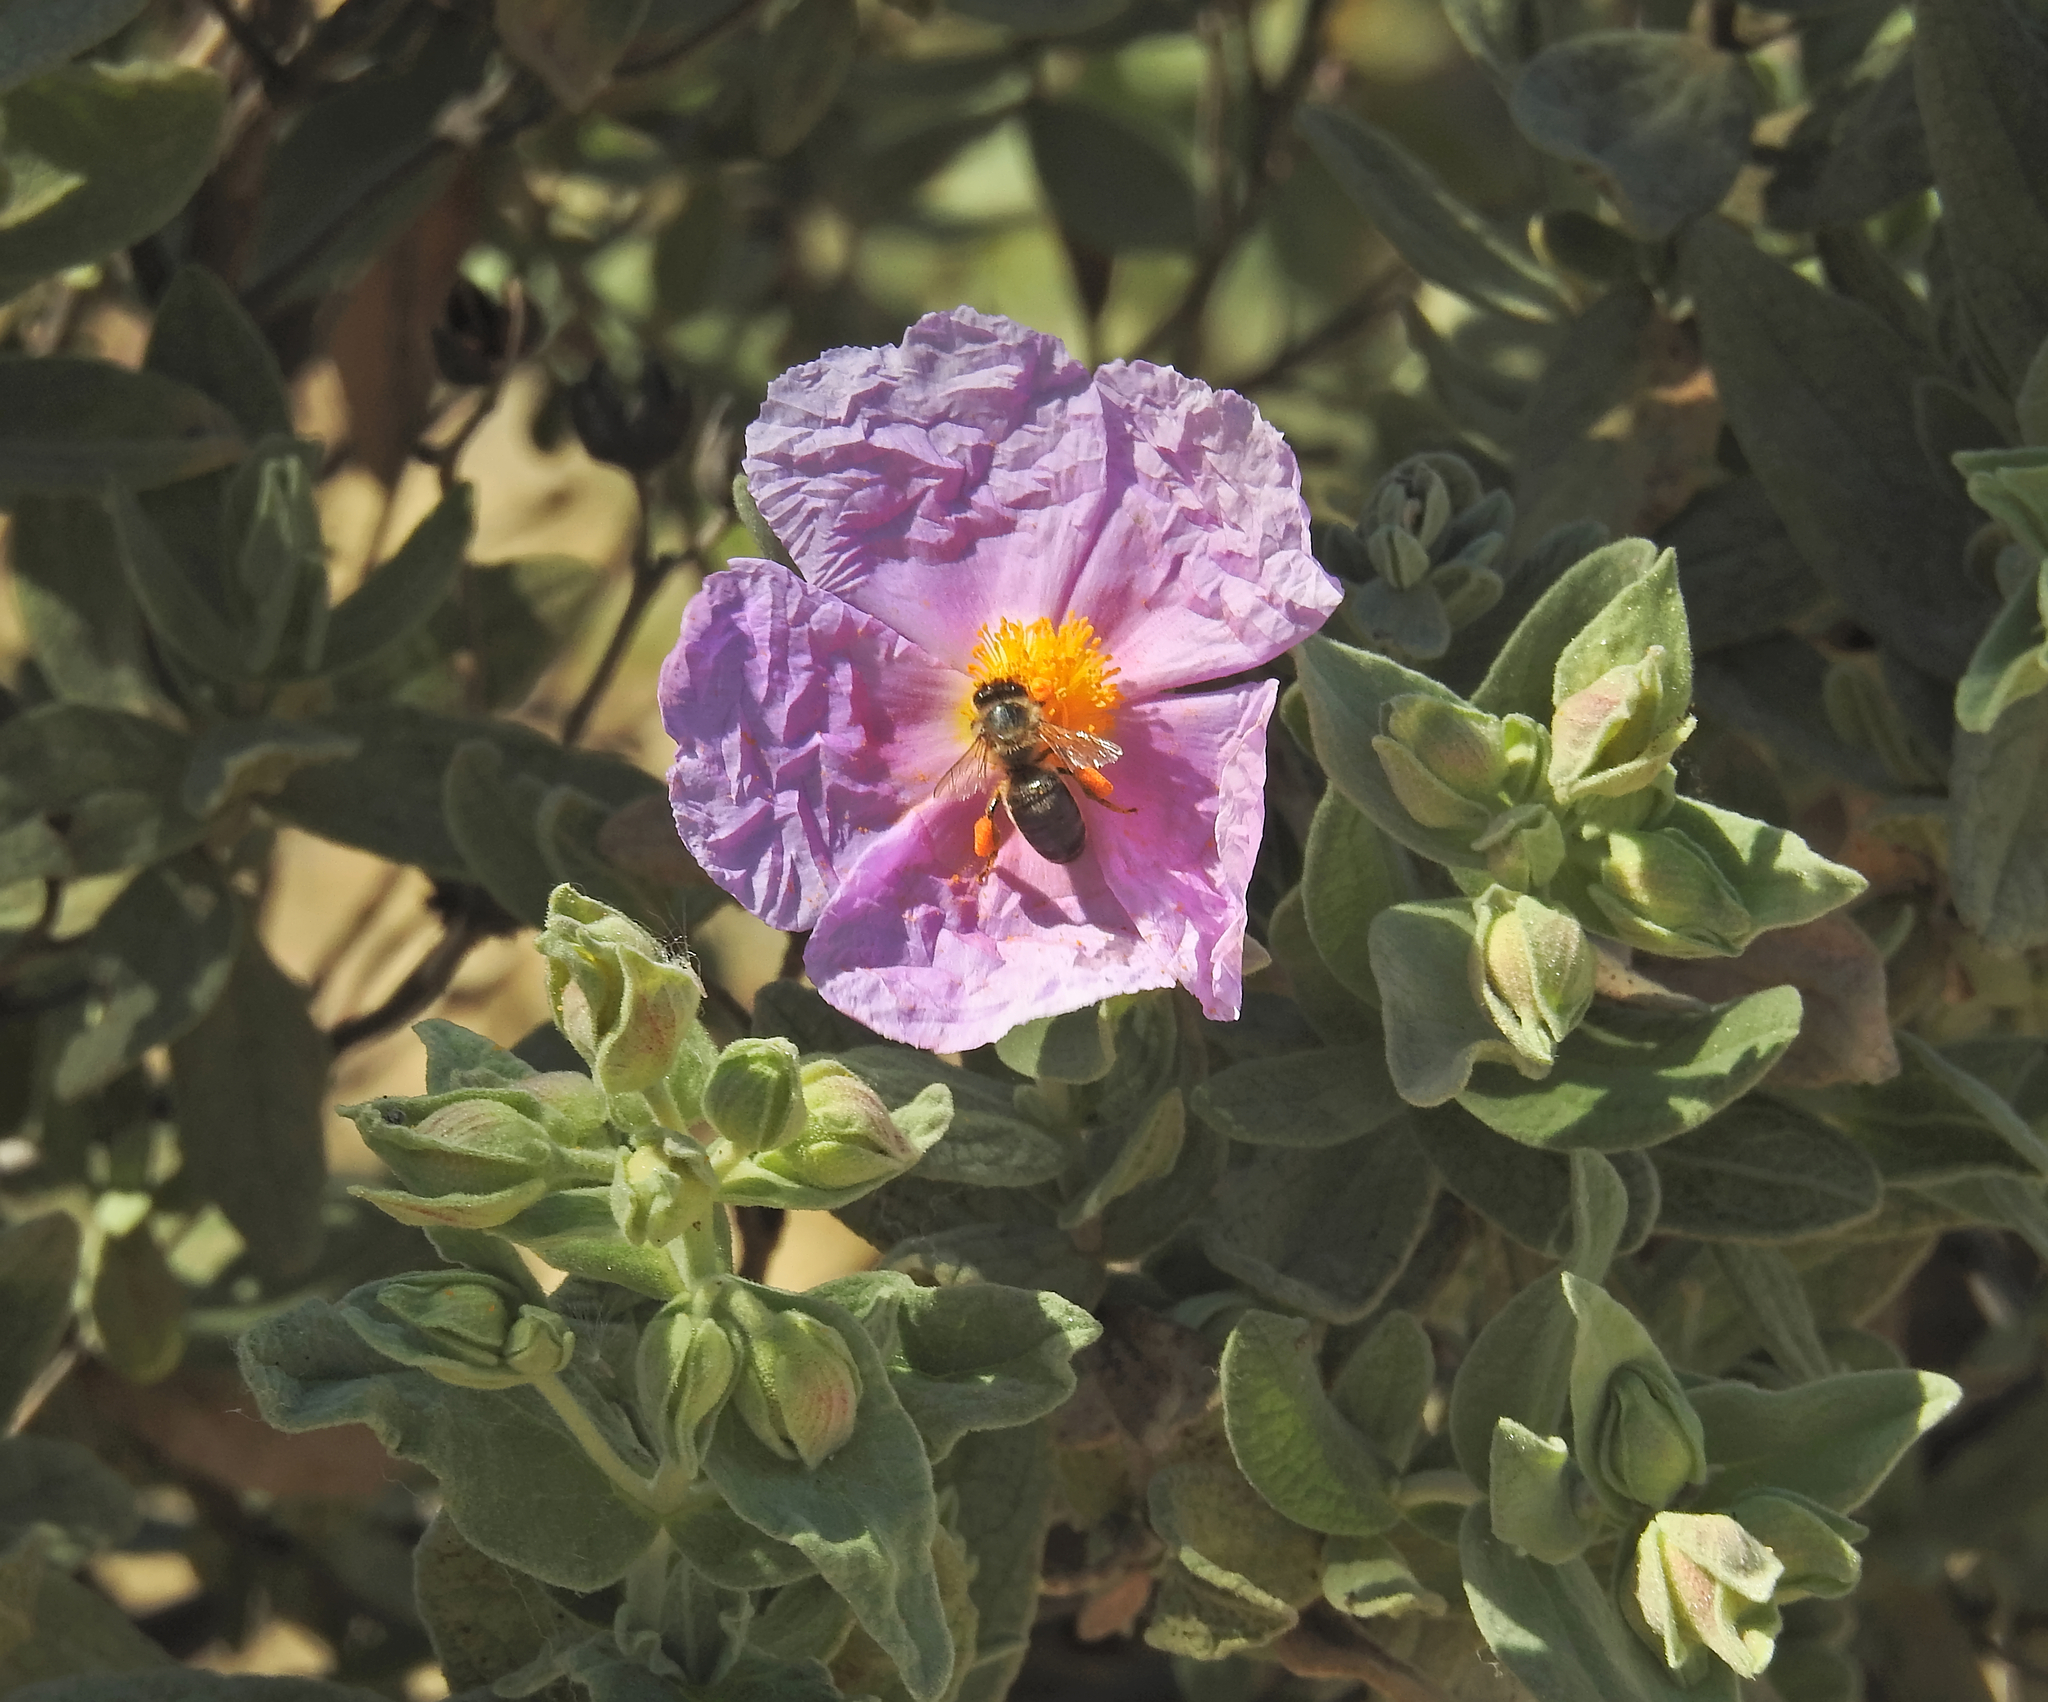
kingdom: Plantae
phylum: Tracheophyta
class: Magnoliopsida
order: Malvales
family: Cistaceae
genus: Cistus
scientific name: Cistus albidus
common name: White-leaf rock-rose
